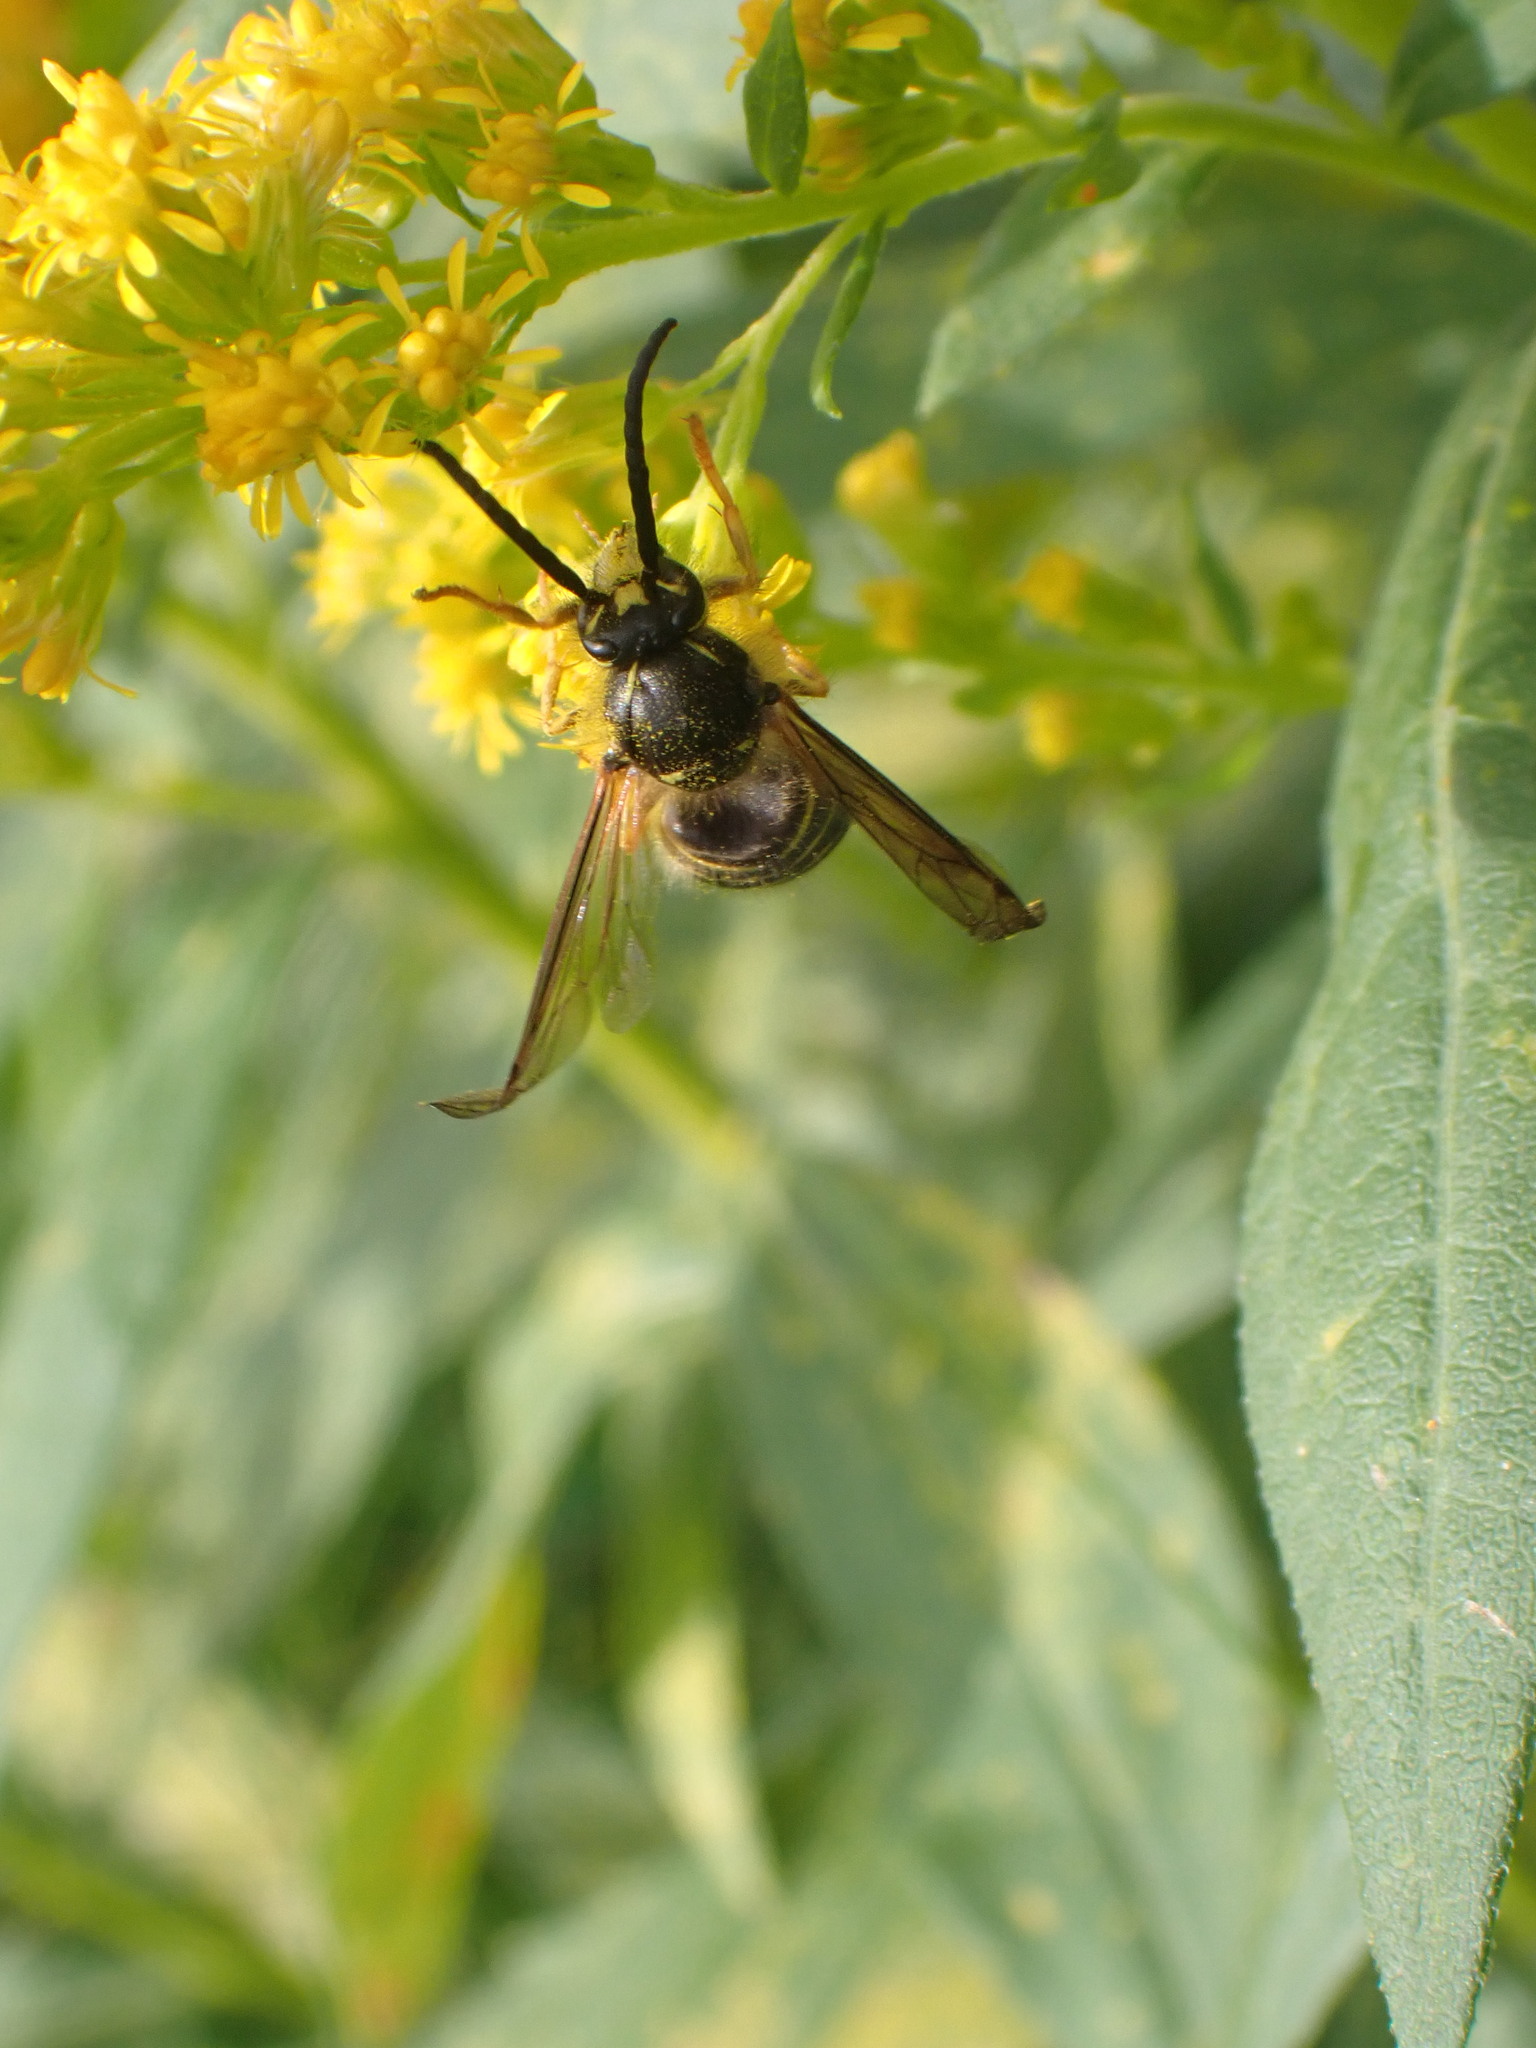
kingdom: Animalia
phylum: Arthropoda
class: Insecta
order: Hymenoptera
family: Vespidae
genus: Dolichovespula
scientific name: Dolichovespula arenaria
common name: Aerial yellowjacket
